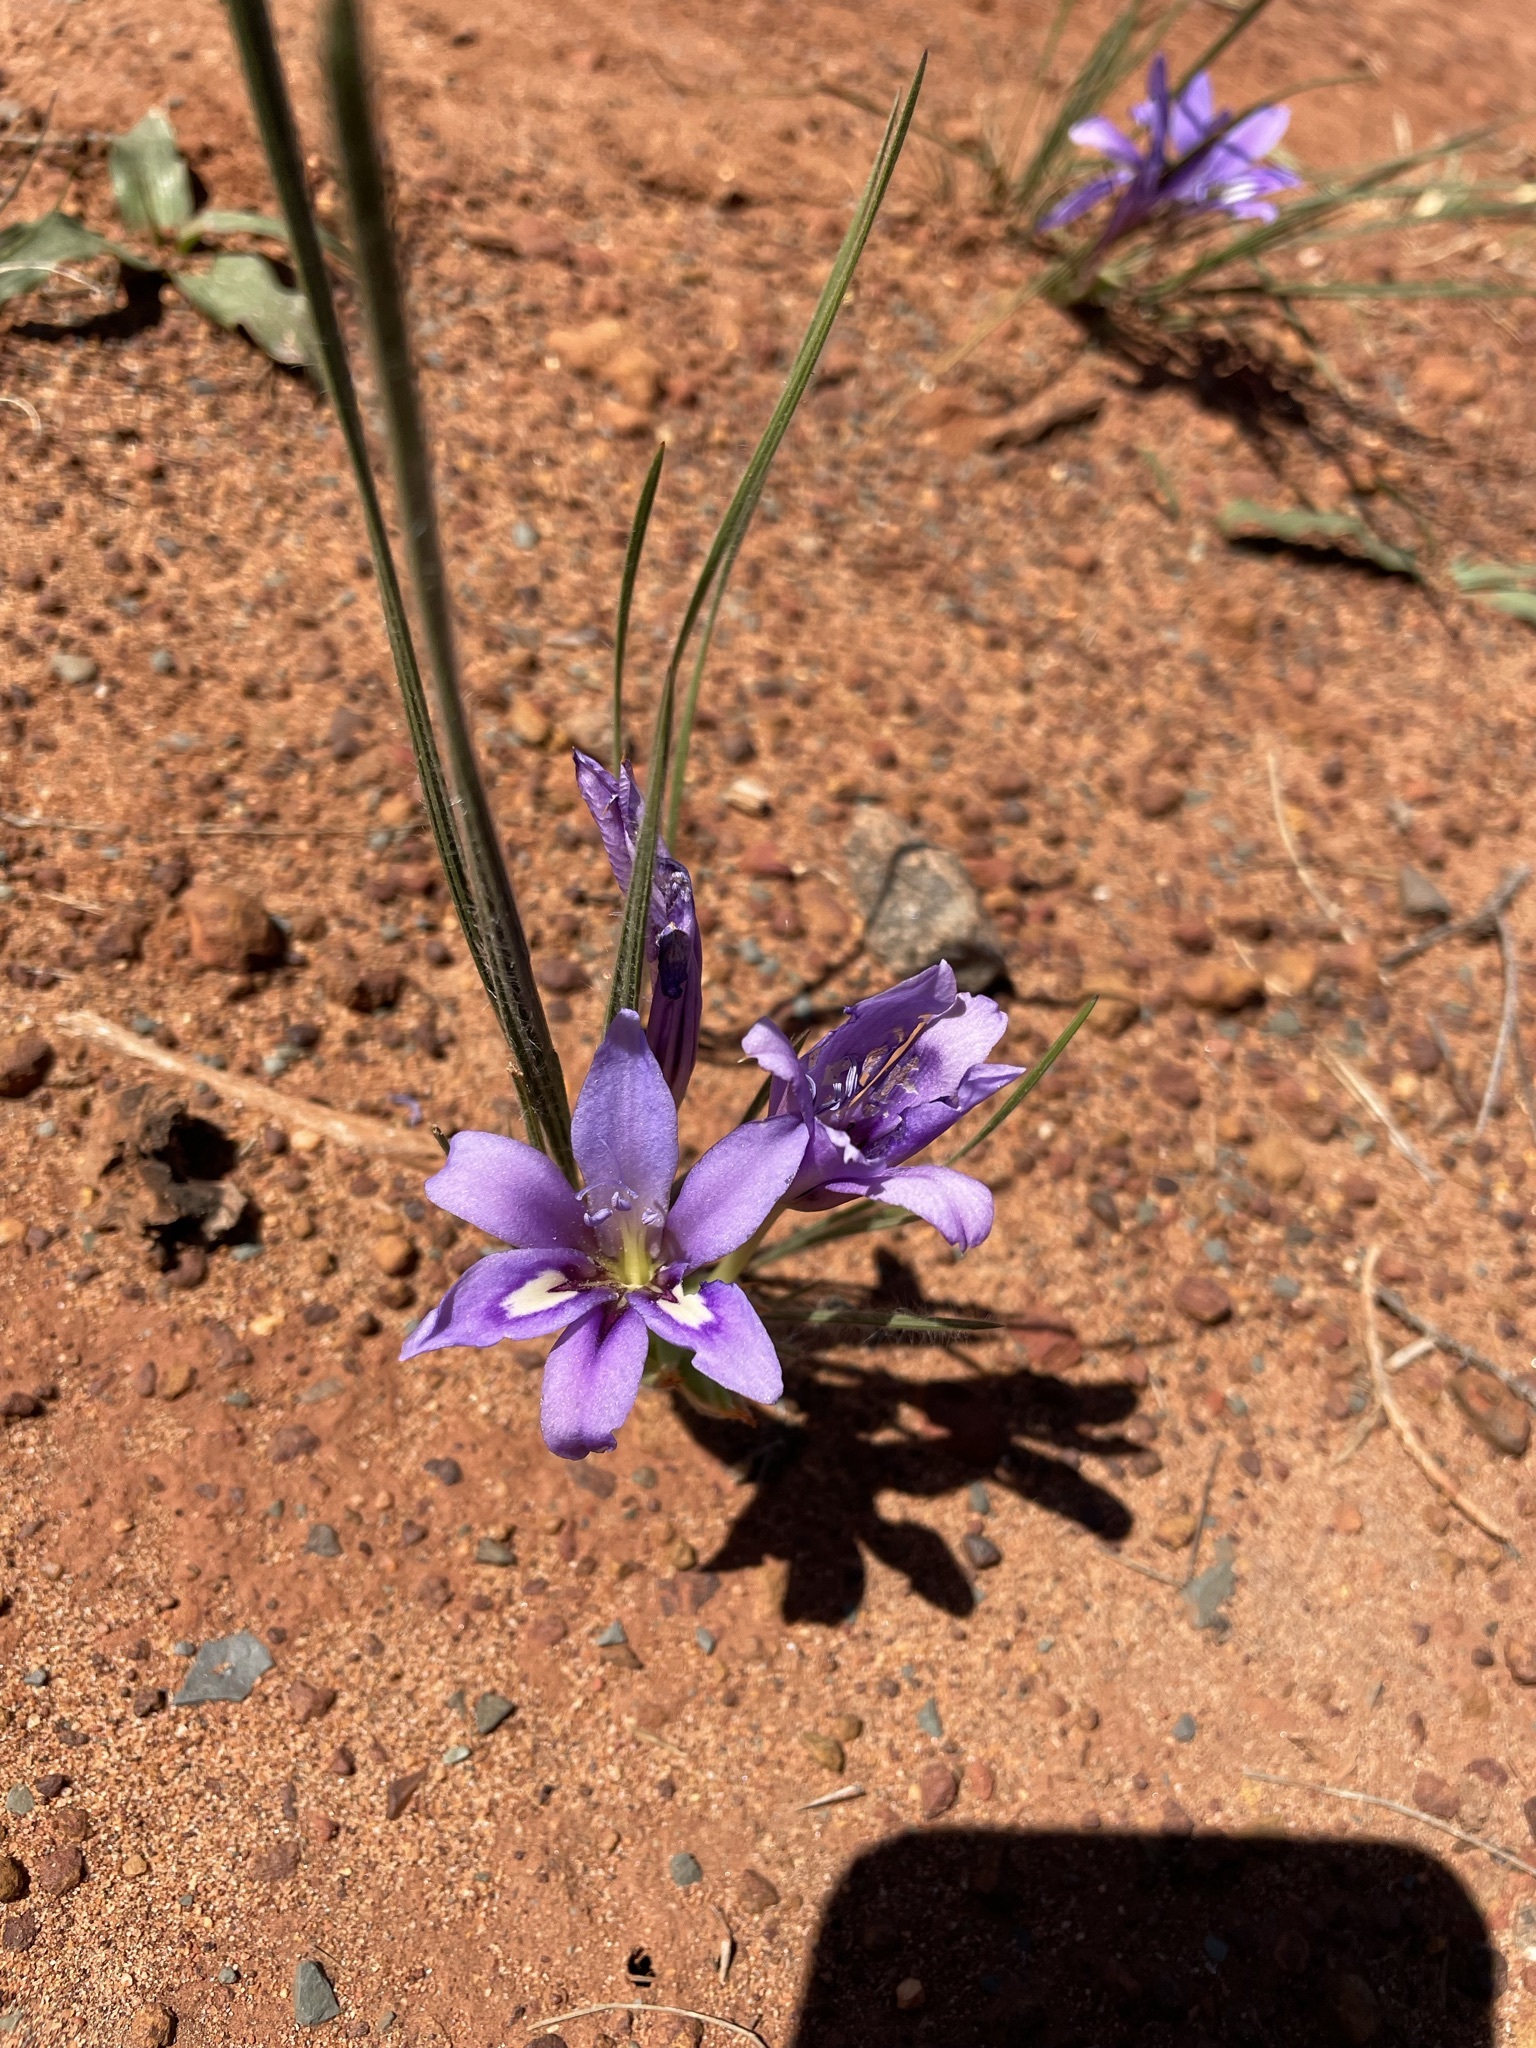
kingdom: Plantae
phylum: Tracheophyta
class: Liliopsida
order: Asparagales
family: Iridaceae
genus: Babiana
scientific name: Babiana sambucina
